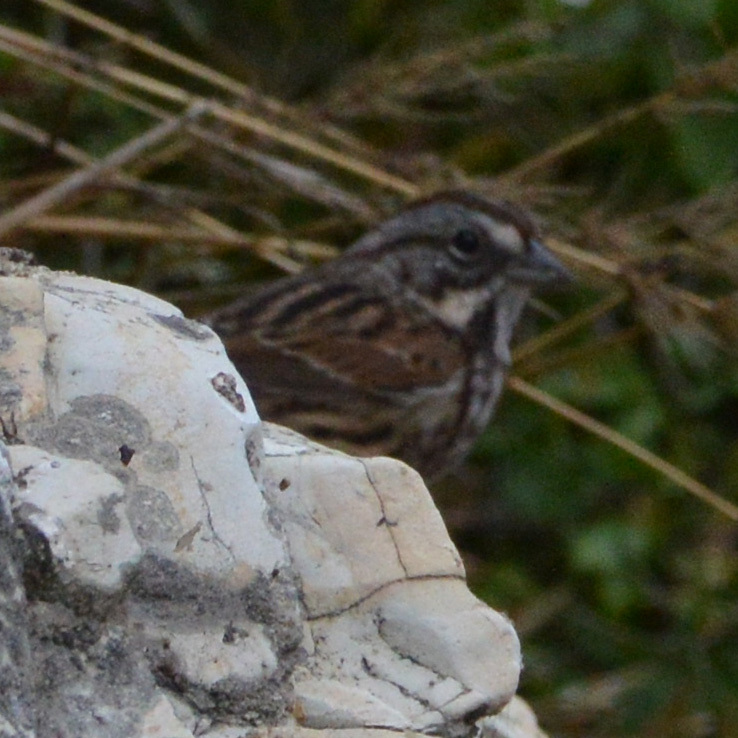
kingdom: Animalia
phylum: Chordata
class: Aves
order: Passeriformes
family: Passerellidae
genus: Melospiza
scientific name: Melospiza melodia
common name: Song sparrow
